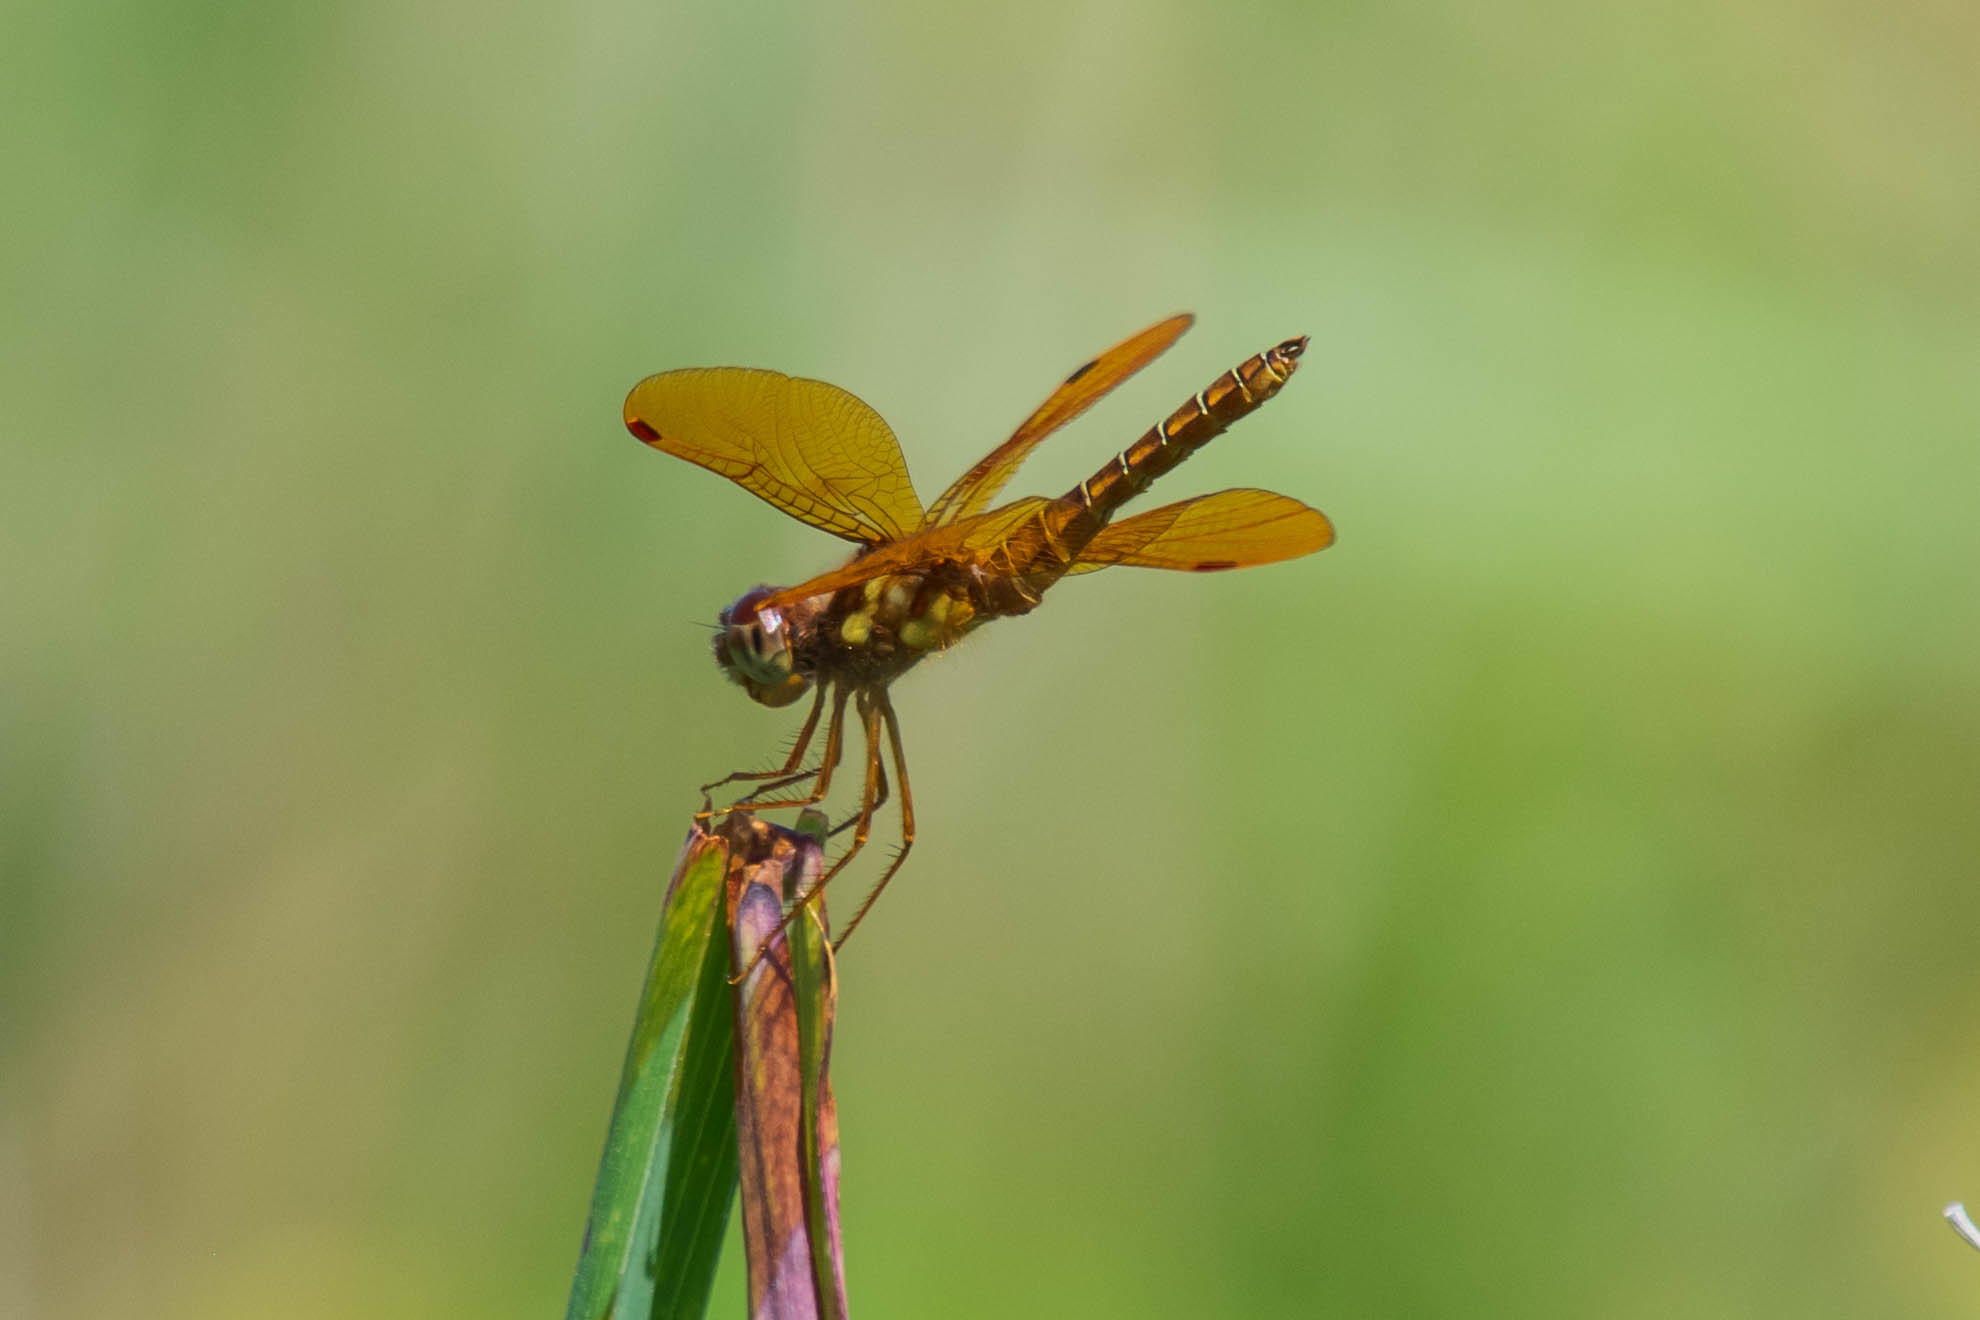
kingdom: Animalia
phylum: Arthropoda
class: Insecta
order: Odonata
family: Libellulidae
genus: Perithemis
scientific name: Perithemis tenera
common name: Eastern amberwing
